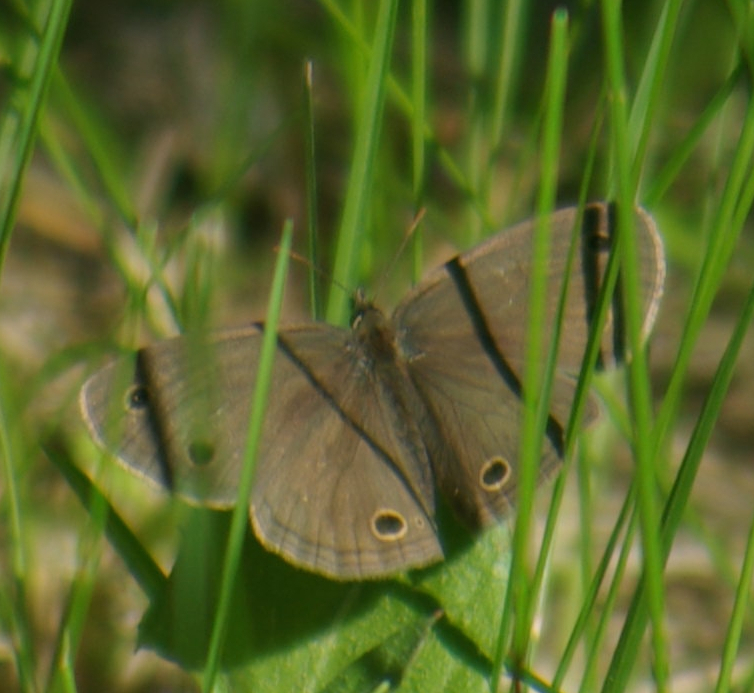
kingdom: Animalia
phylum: Arthropoda
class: Insecta
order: Lepidoptera
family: Nymphalidae
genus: Euptychia
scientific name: Euptychia cymela
